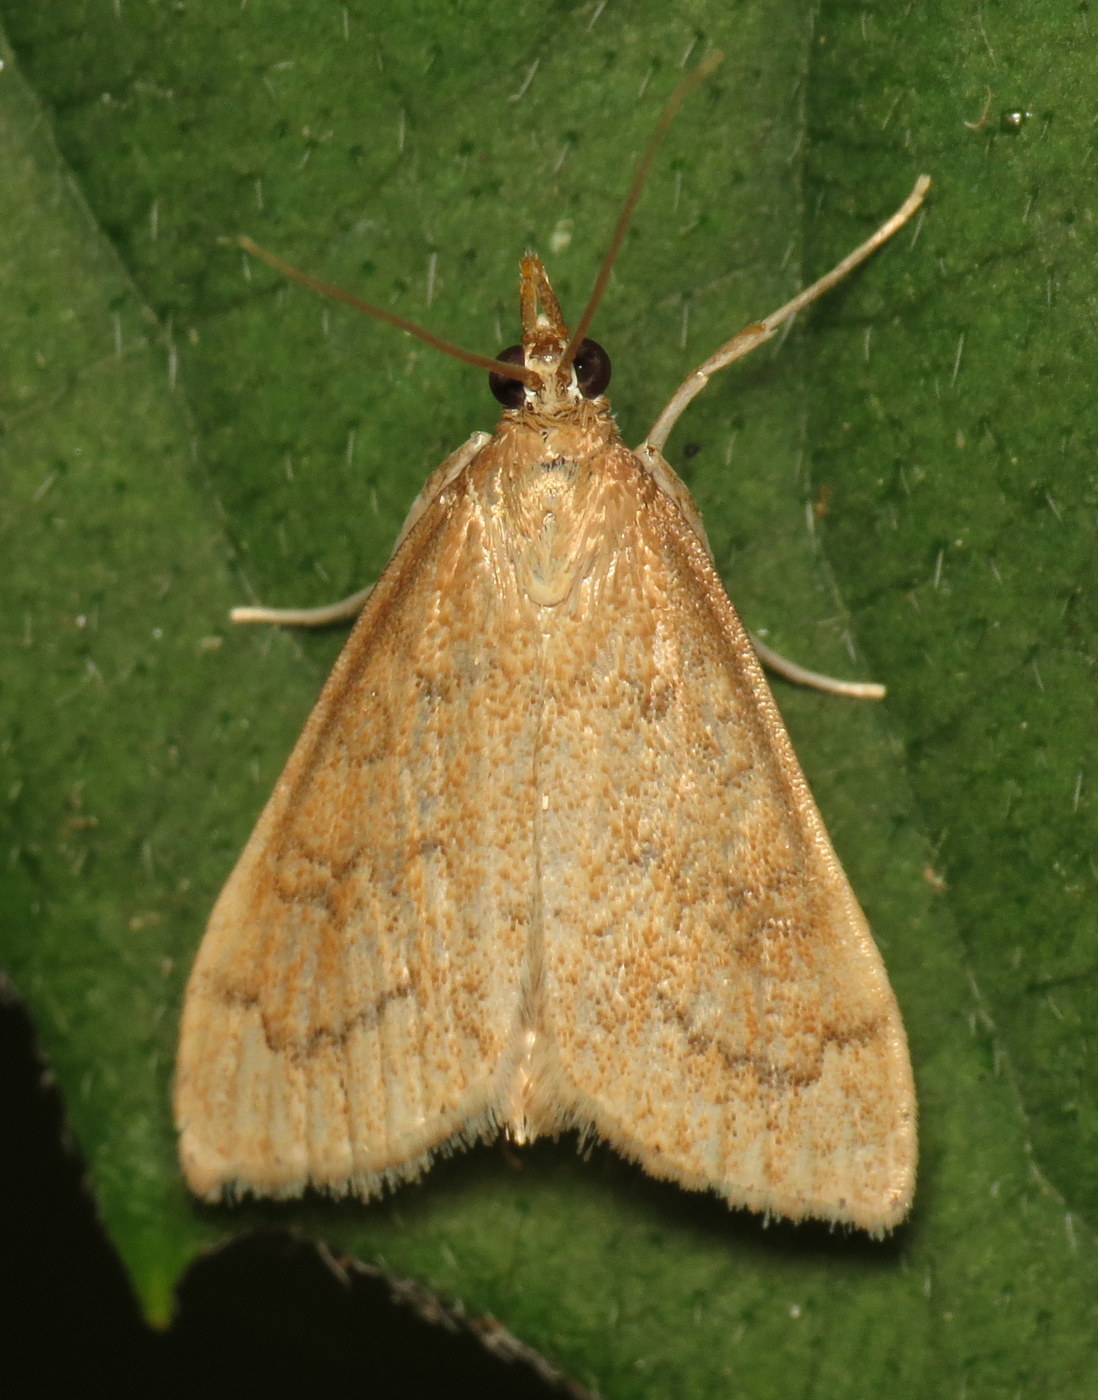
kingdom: Animalia
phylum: Arthropoda
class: Insecta
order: Lepidoptera
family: Crambidae
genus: Udea
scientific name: Udea rubigalis
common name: Celery leaftier moth
